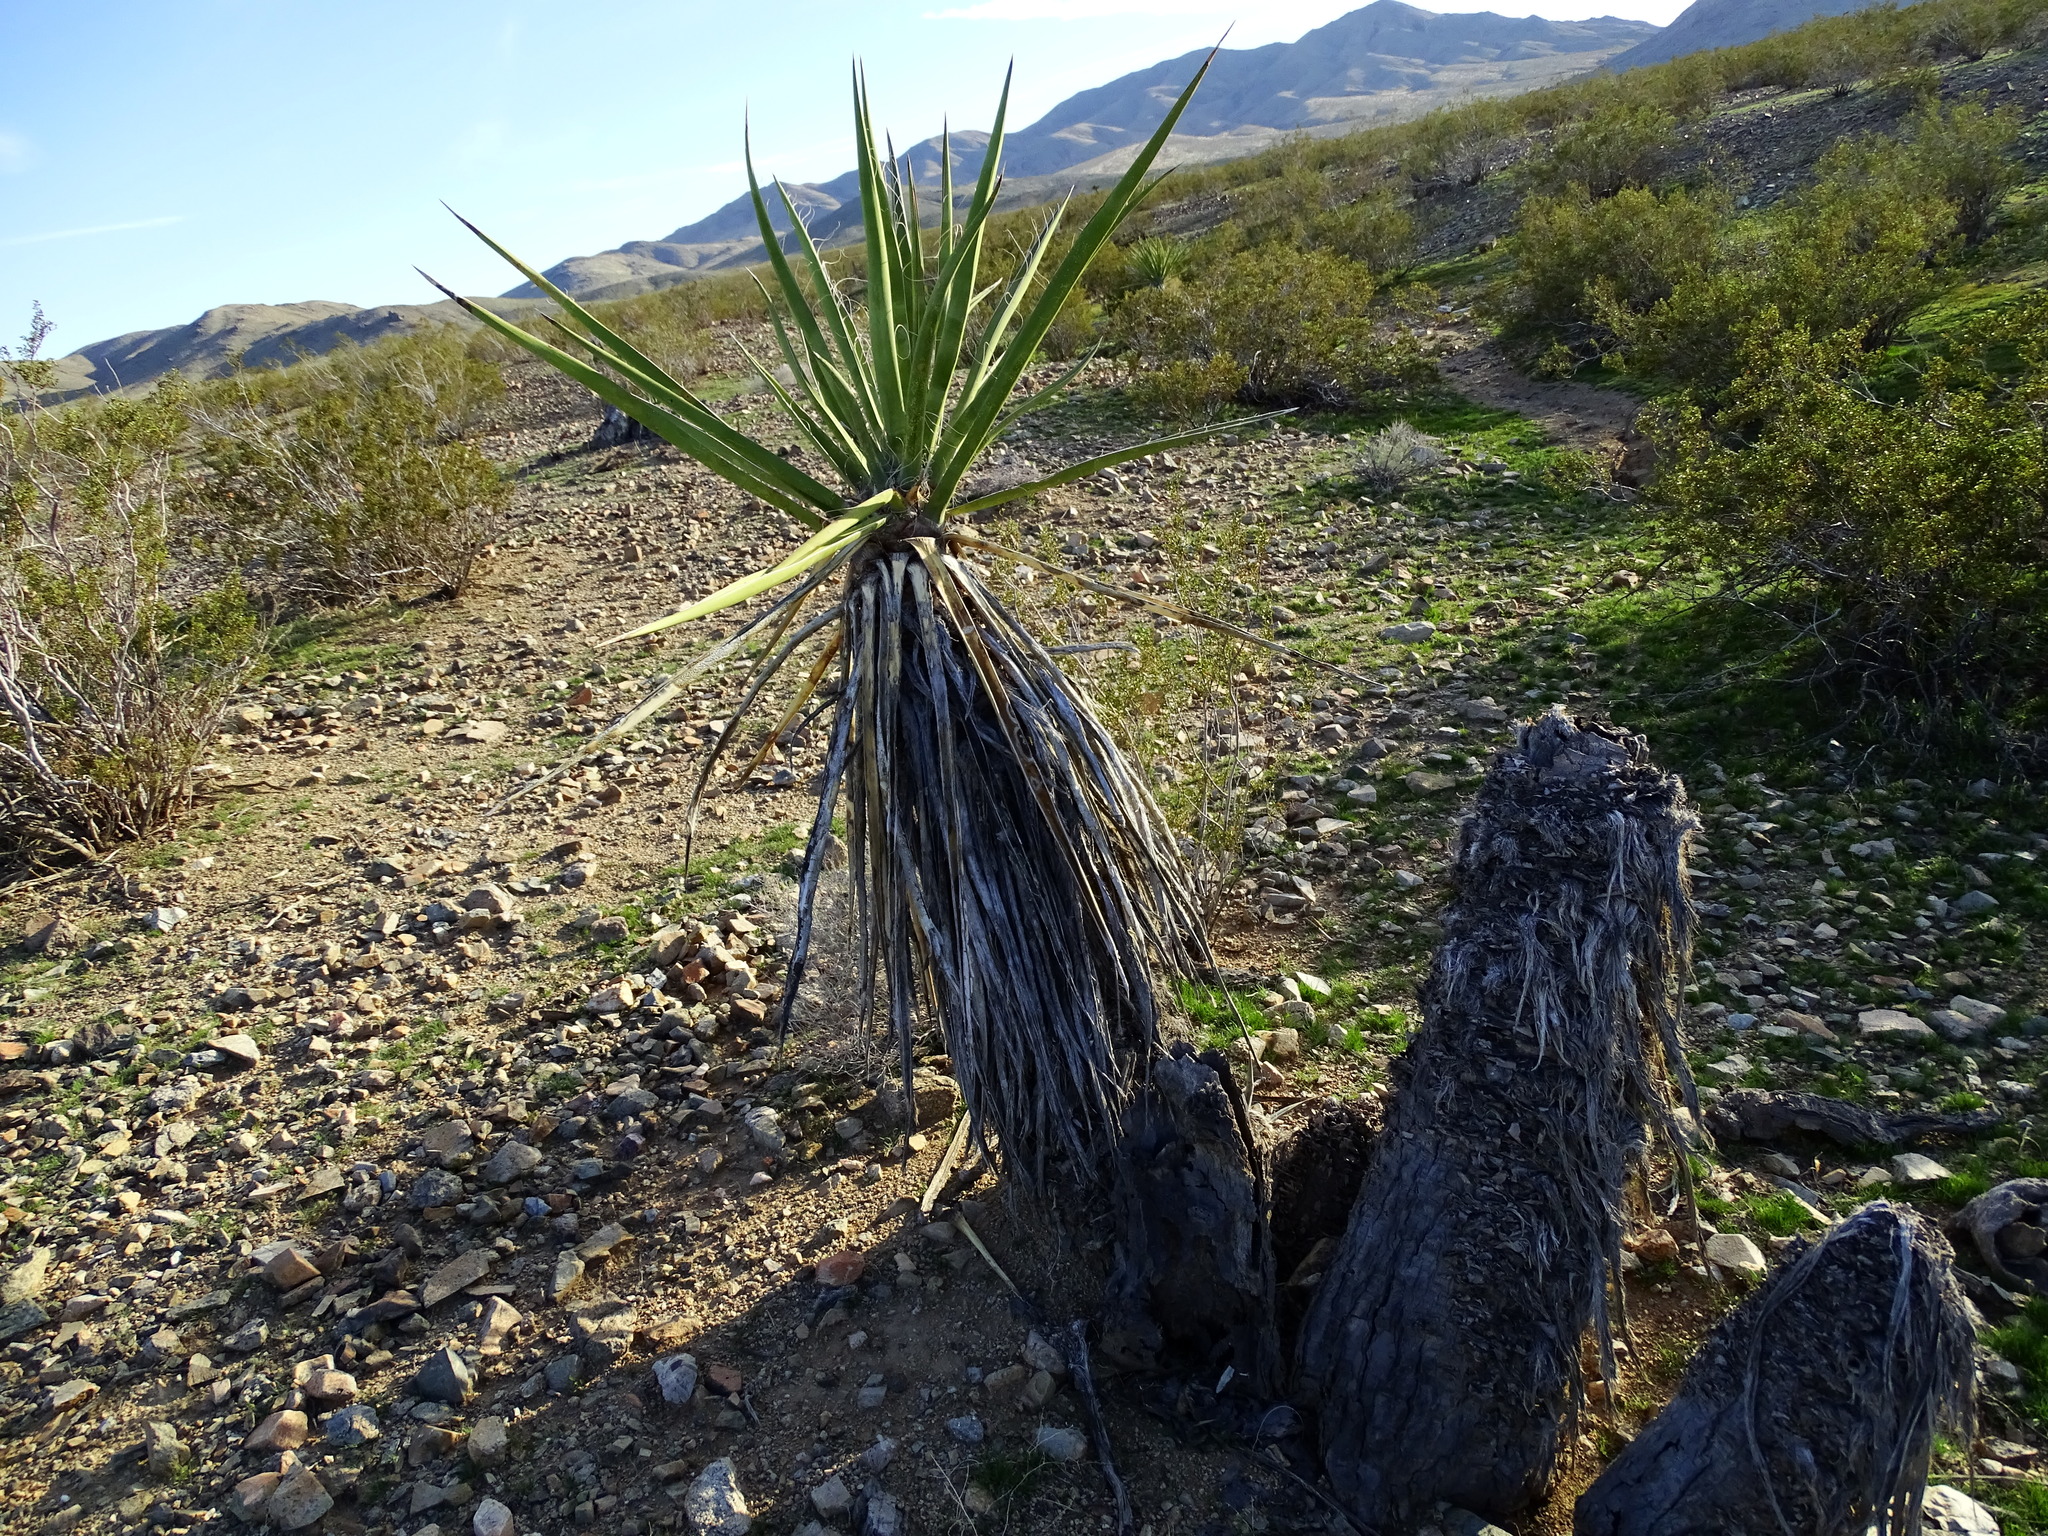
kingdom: Plantae
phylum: Tracheophyta
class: Liliopsida
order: Asparagales
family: Asparagaceae
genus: Yucca
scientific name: Yucca schidigera
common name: Mojave yucca
